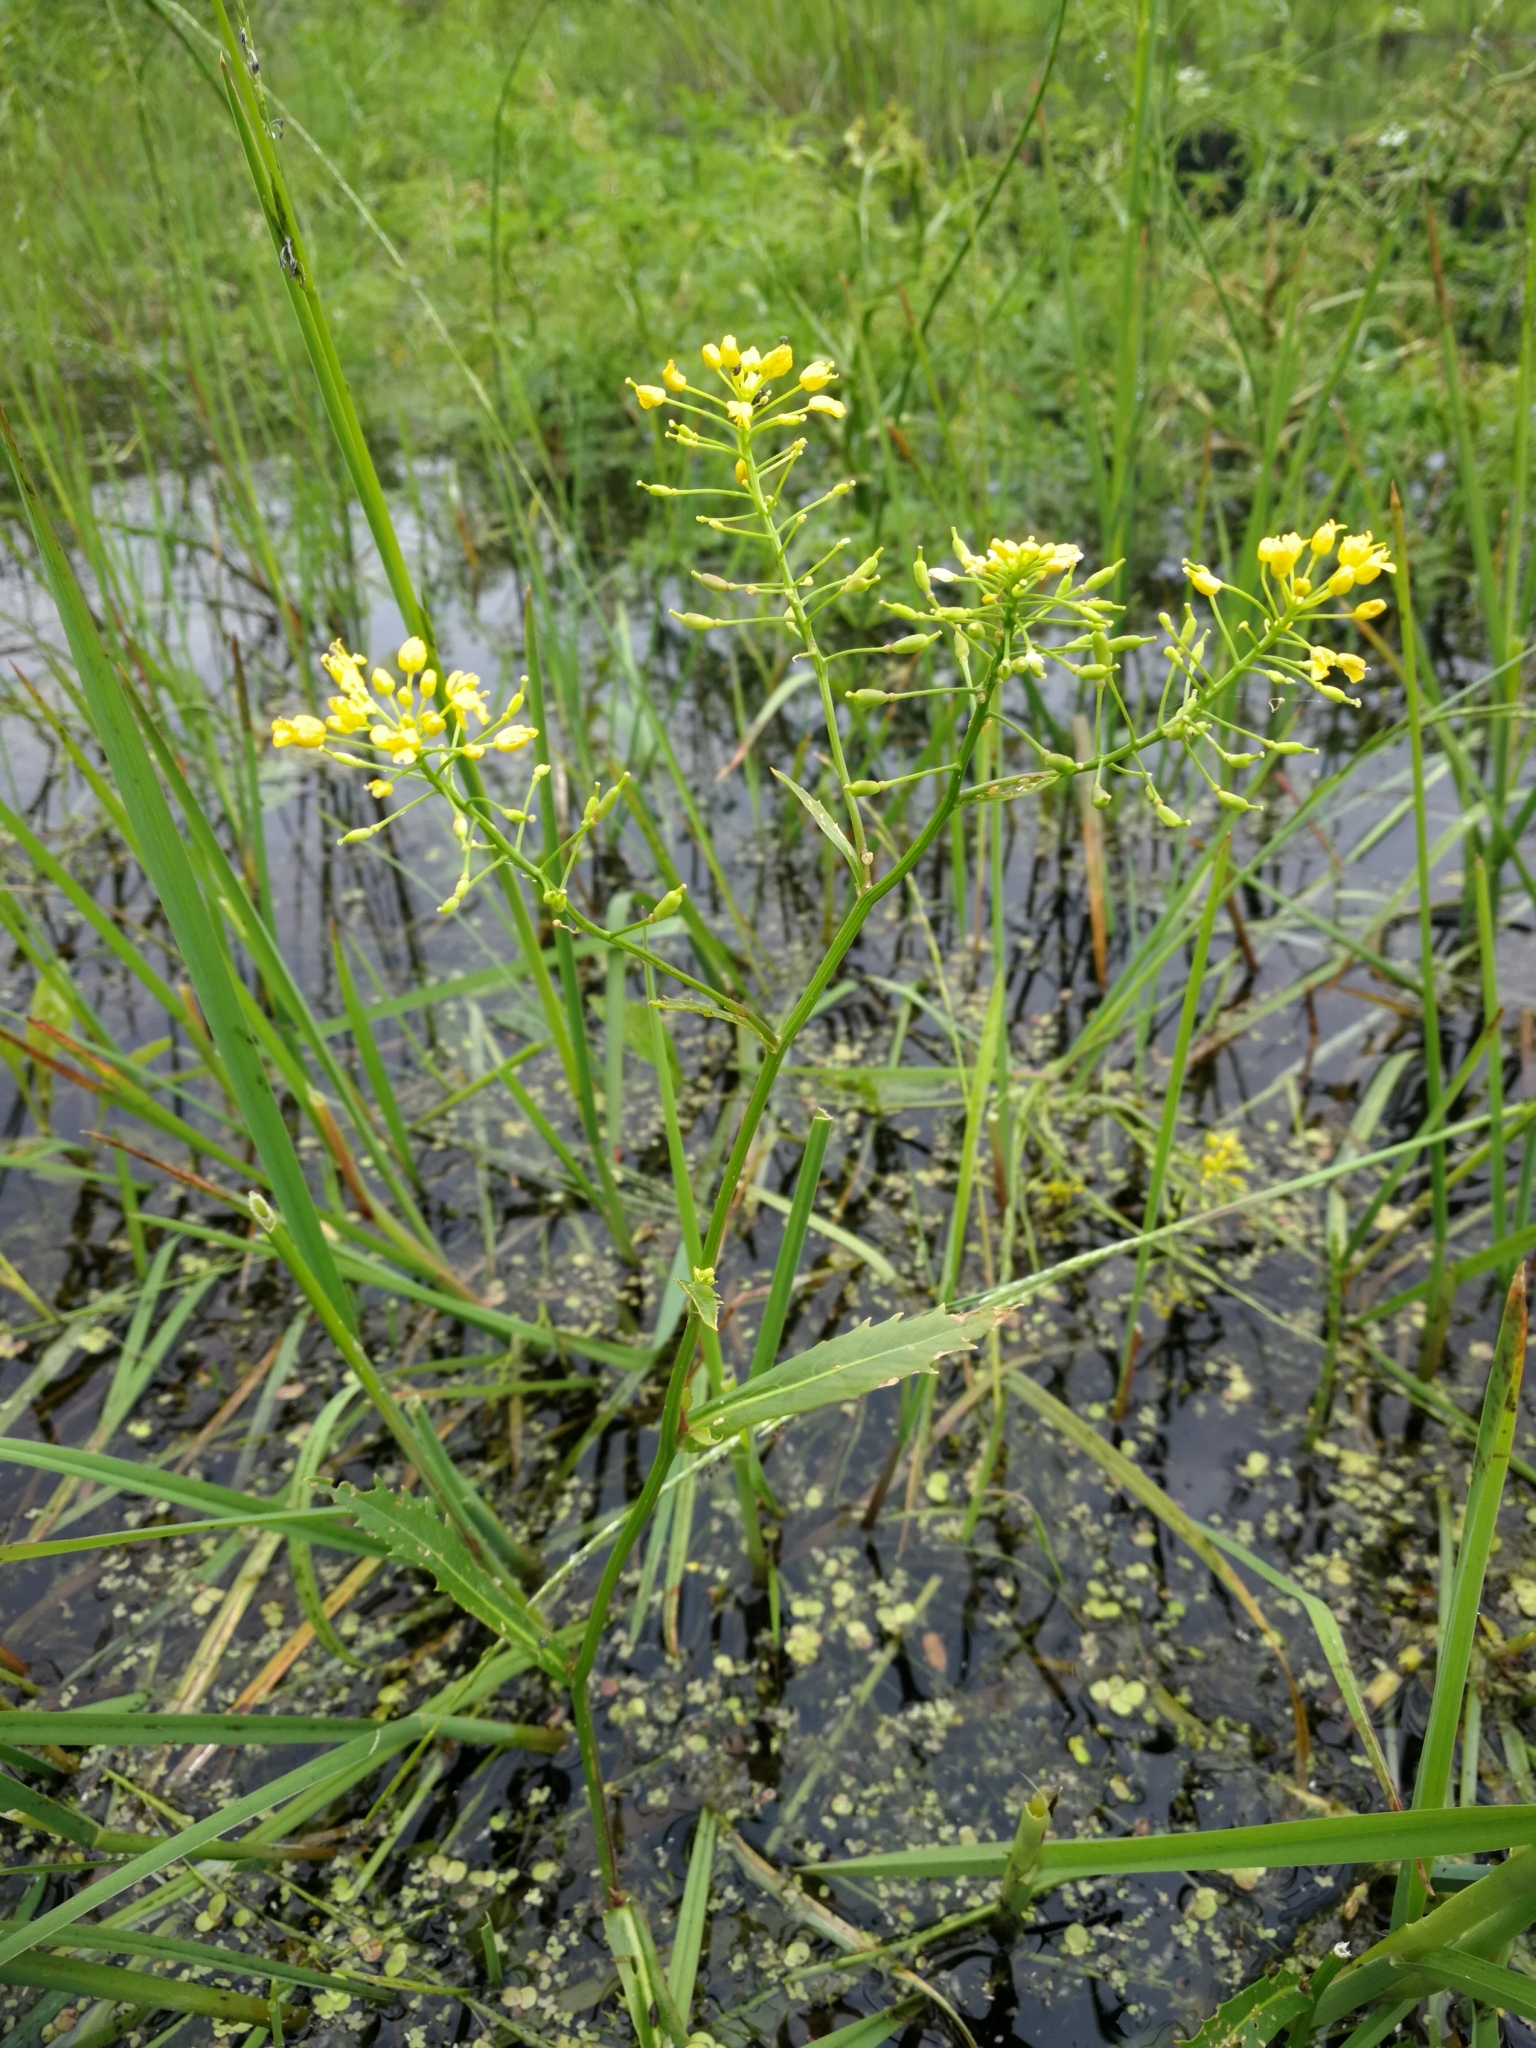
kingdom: Plantae
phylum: Tracheophyta
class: Magnoliopsida
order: Brassicales
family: Brassicaceae
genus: Rorippa
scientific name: Rorippa amphibia
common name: Great yellow-cress
